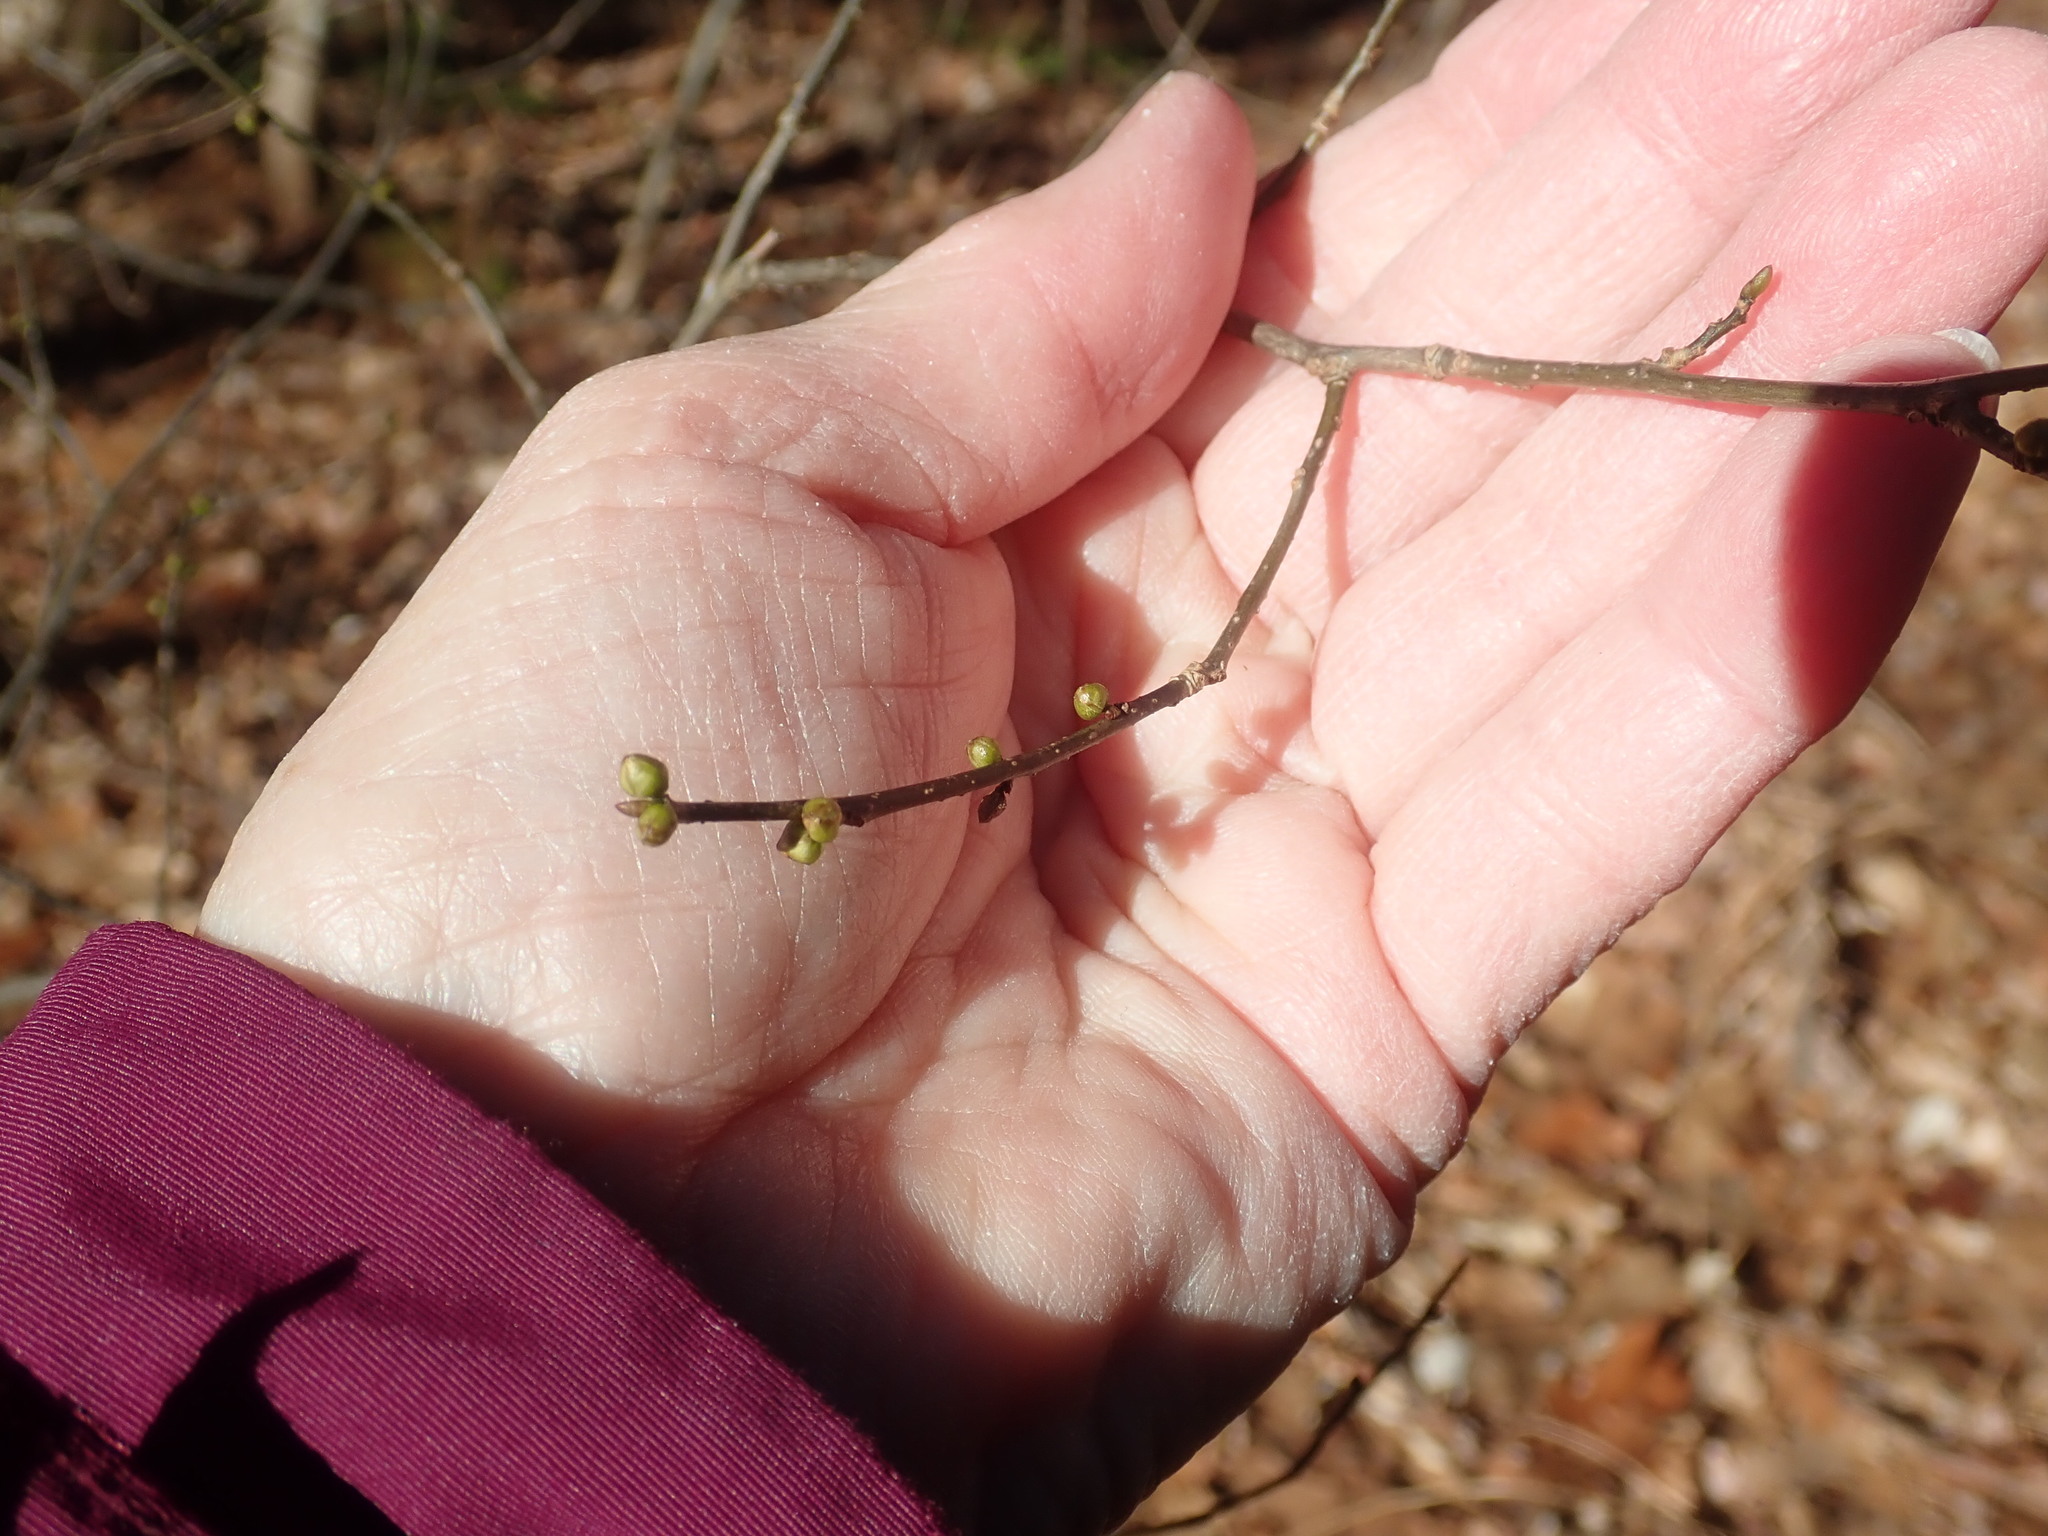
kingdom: Plantae
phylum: Tracheophyta
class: Magnoliopsida
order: Laurales
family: Lauraceae
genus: Lindera
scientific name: Lindera benzoin
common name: Spicebush
